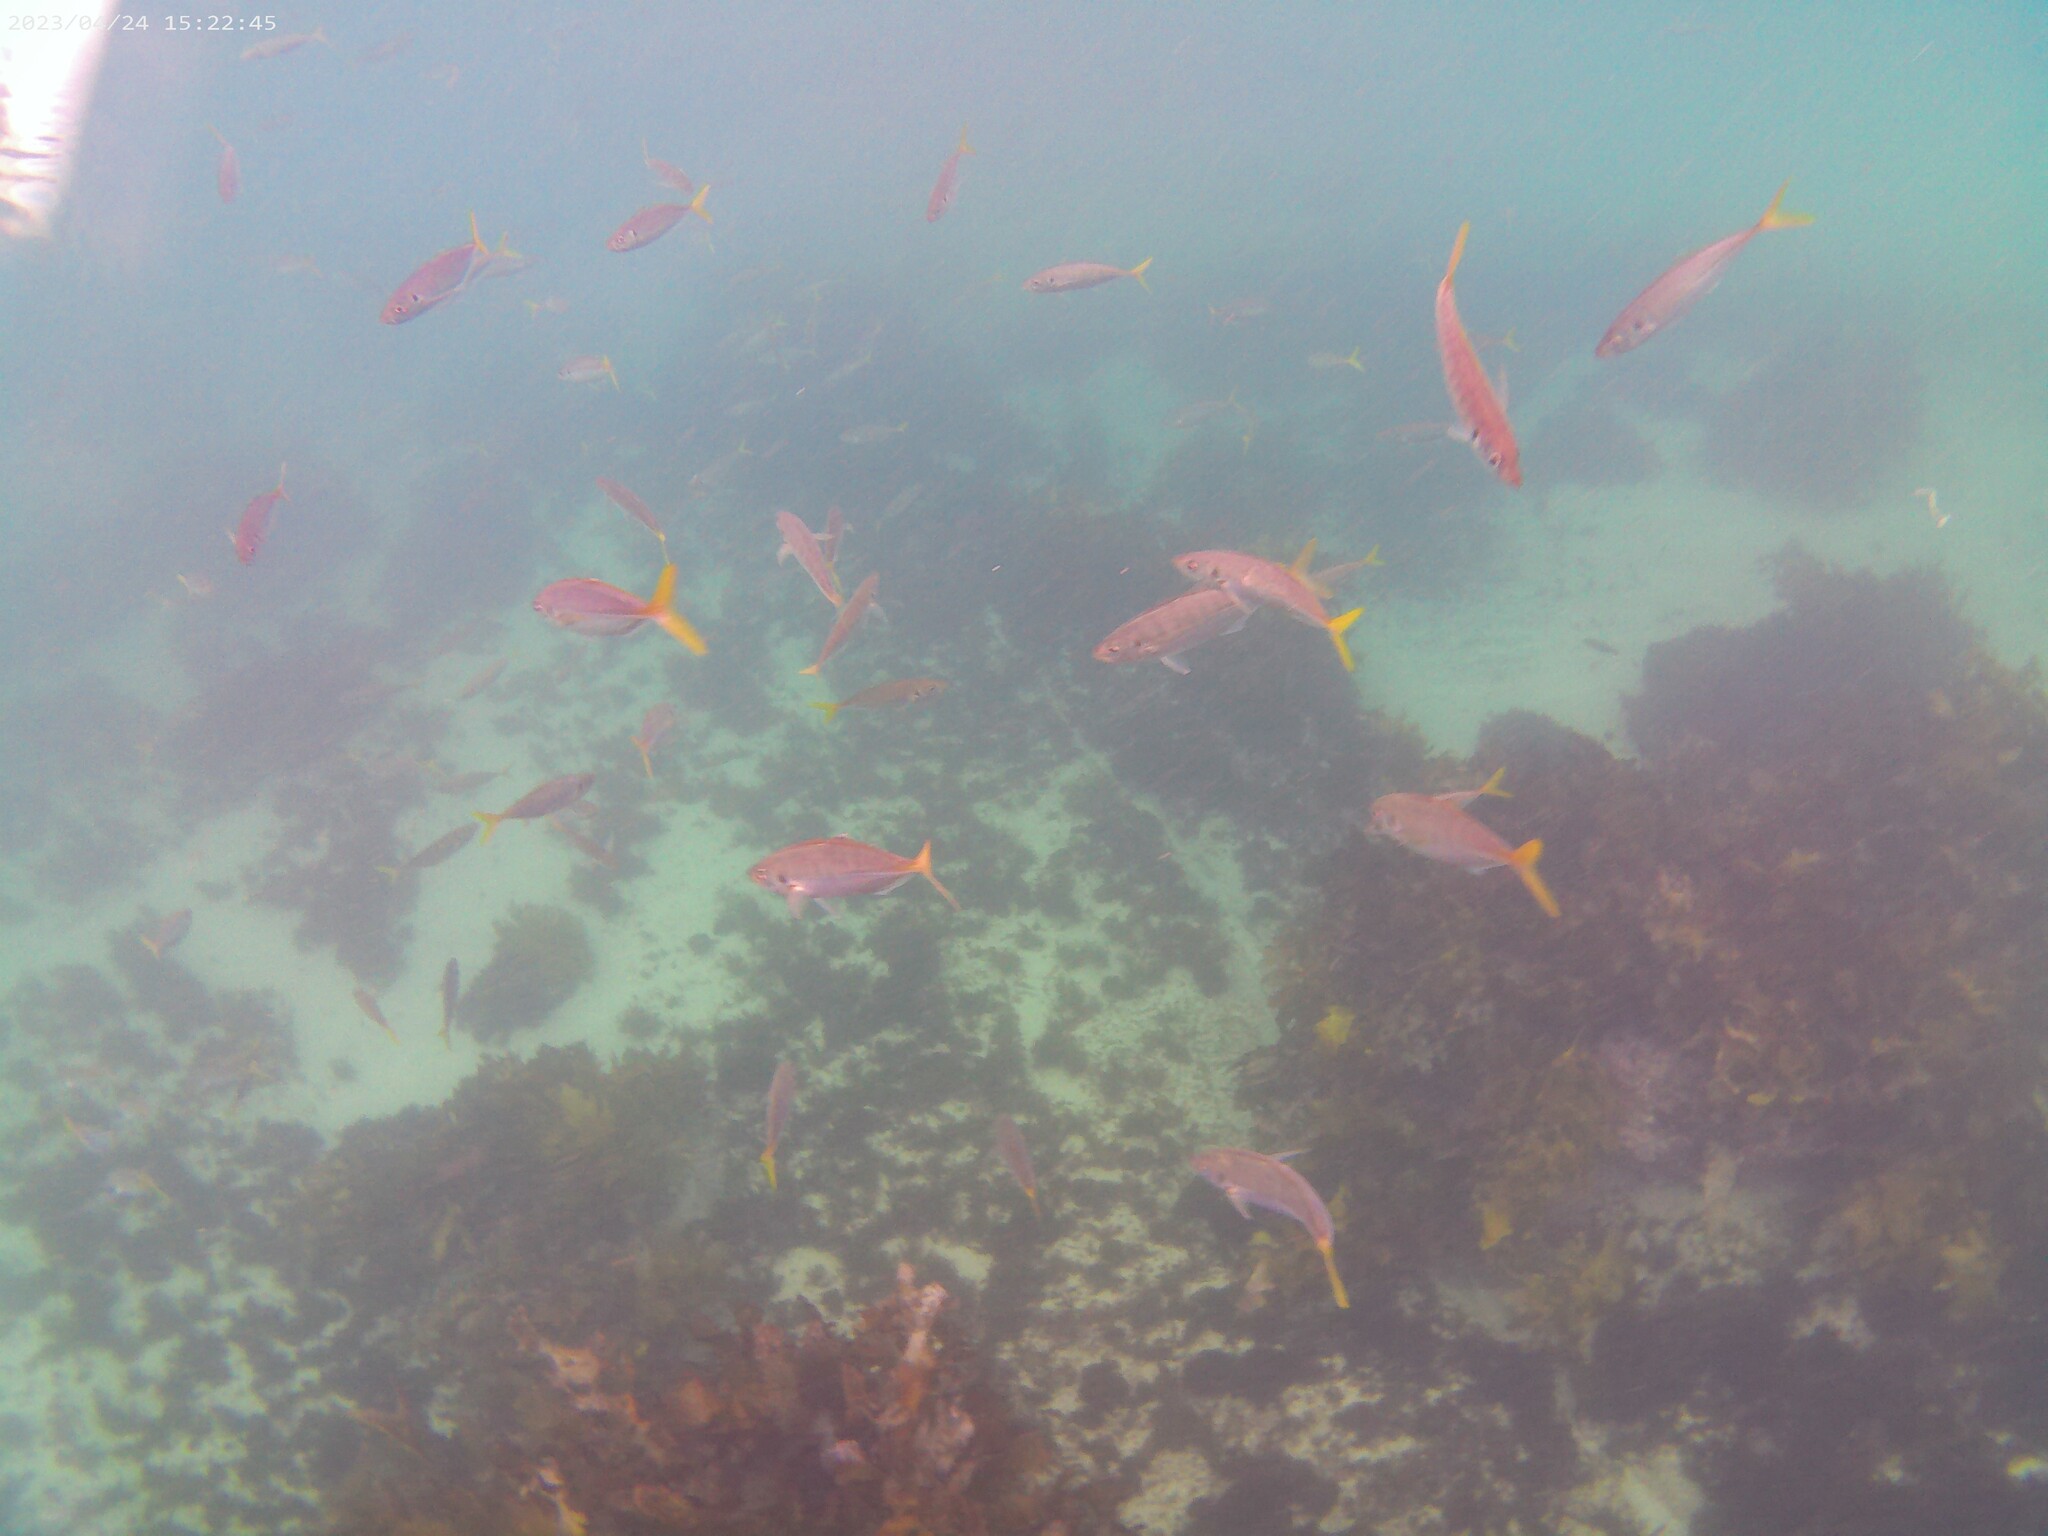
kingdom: Animalia
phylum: Chordata
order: Perciformes
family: Carangidae
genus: Trachurus
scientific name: Trachurus novaezelandiae
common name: Yellowtail horse mackerel
